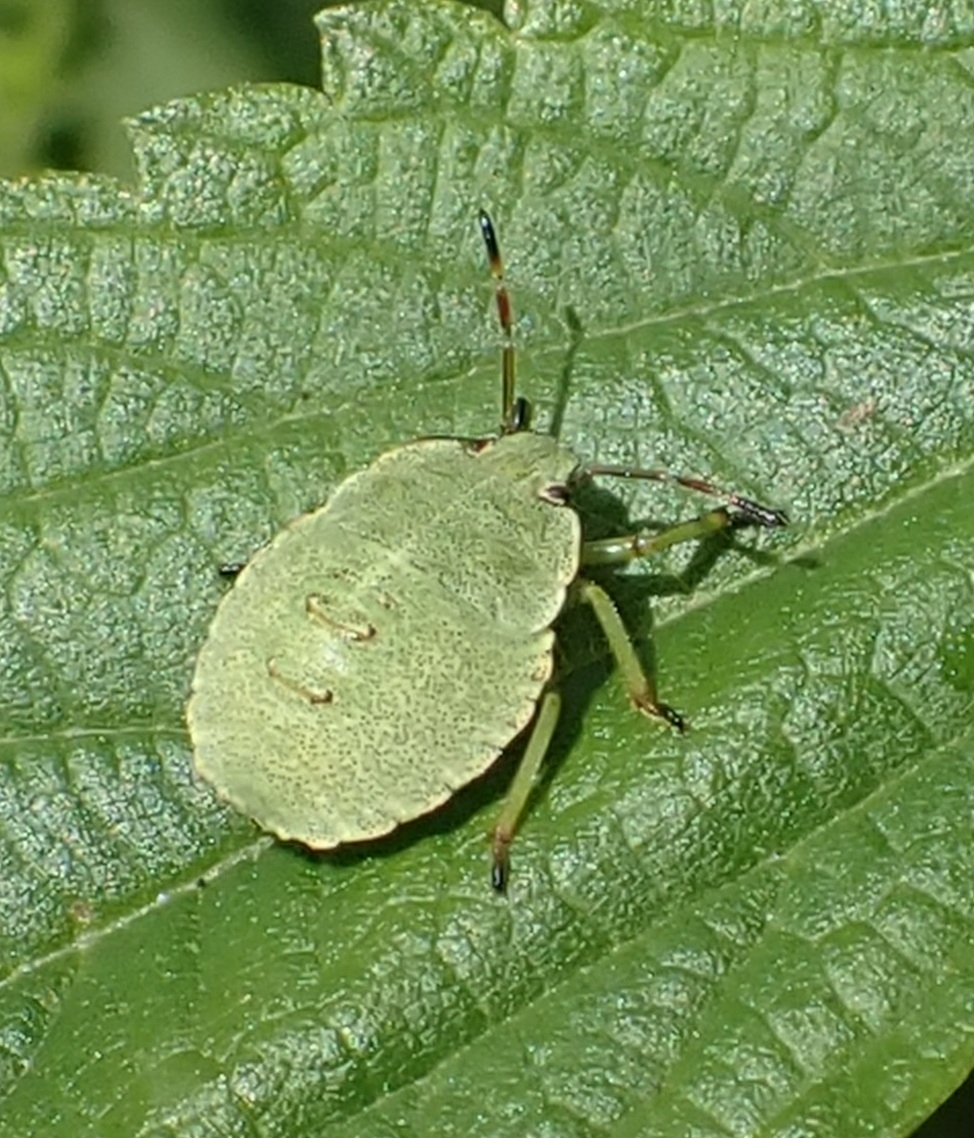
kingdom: Animalia
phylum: Arthropoda
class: Insecta
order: Hemiptera
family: Pentatomidae
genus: Palomena
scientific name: Palomena prasina
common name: Green shieldbug
